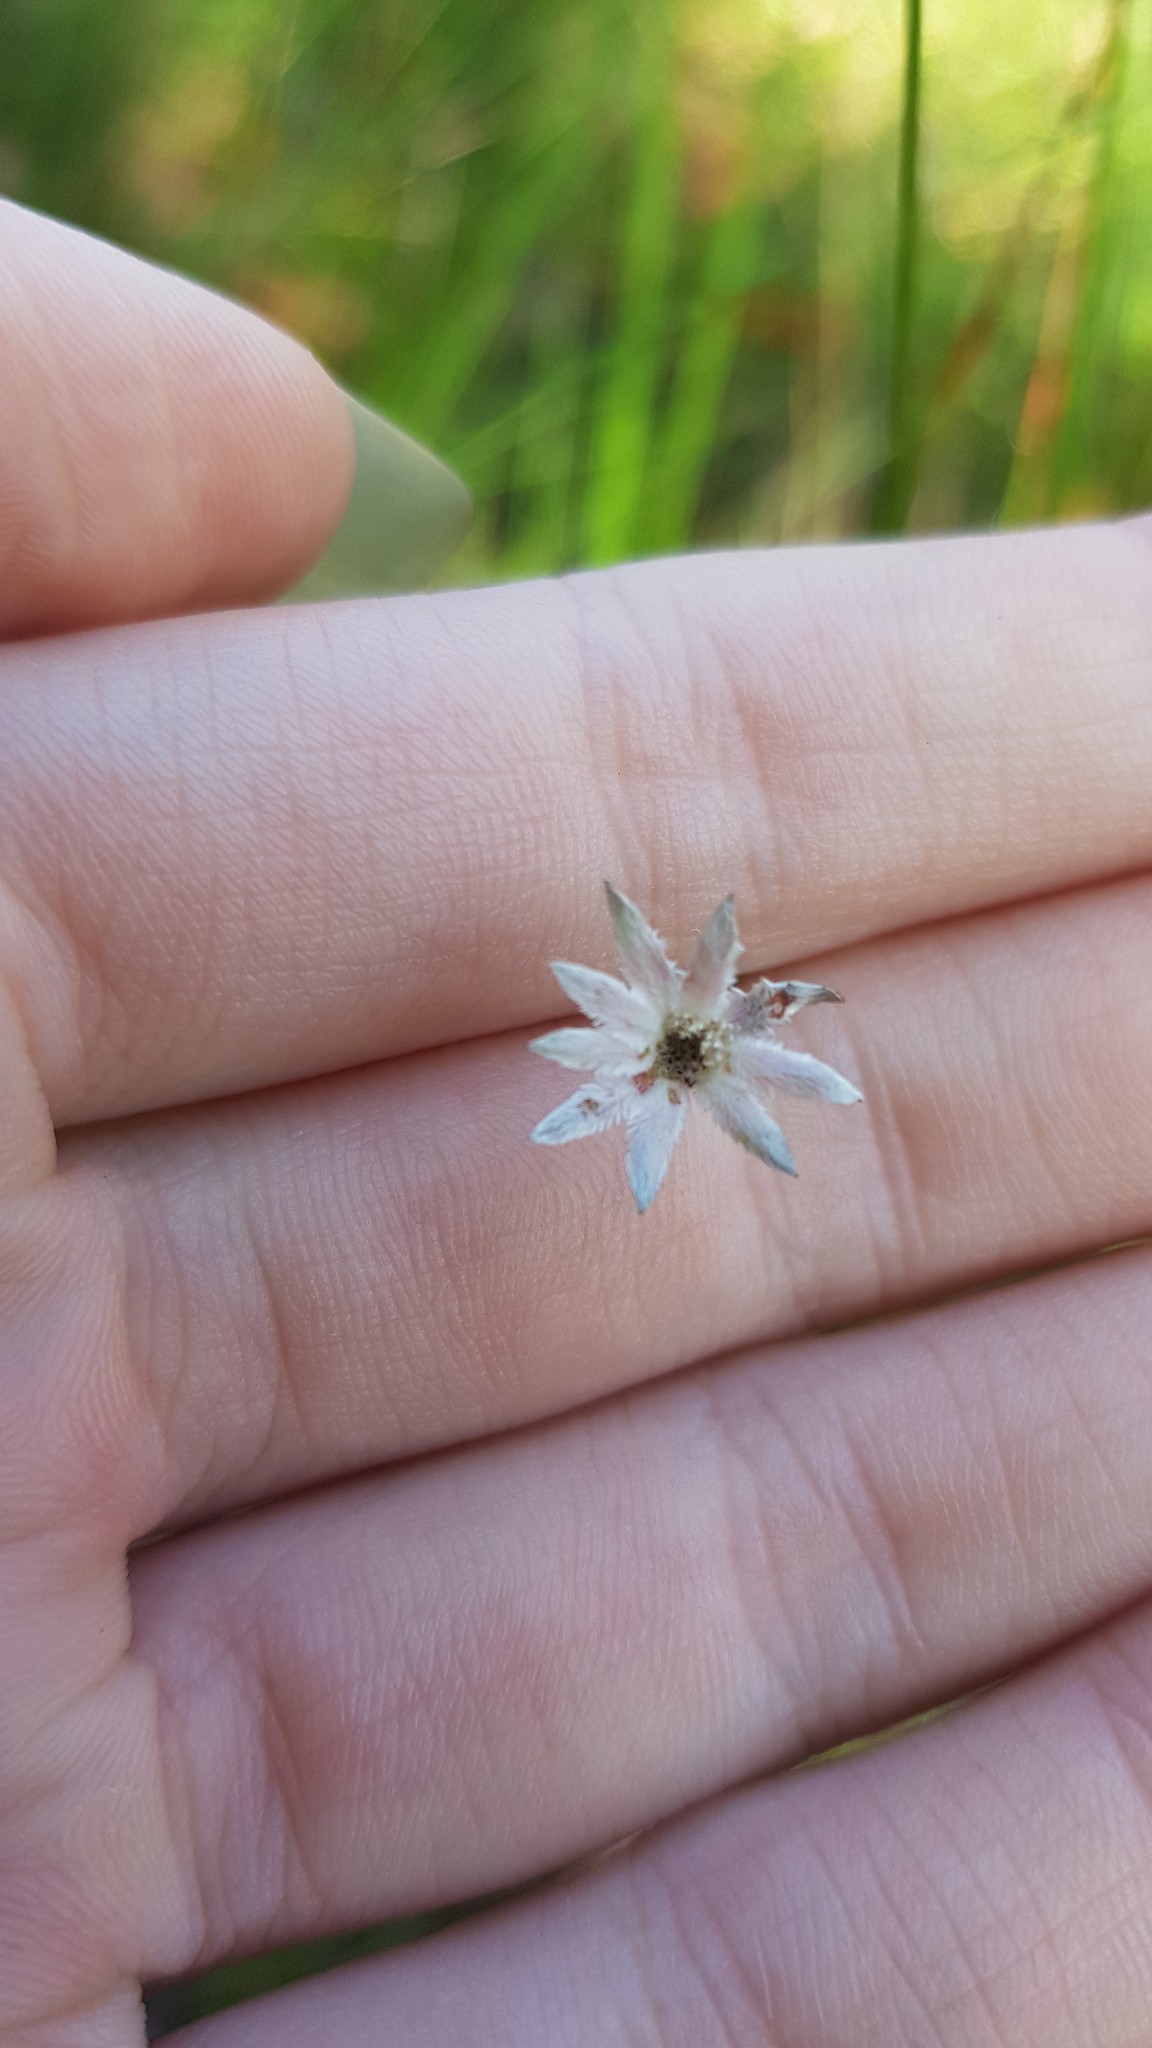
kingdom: Plantae
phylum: Tracheophyta
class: Magnoliopsida
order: Apiales
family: Apiaceae
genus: Actinotus
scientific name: Actinotus minor
